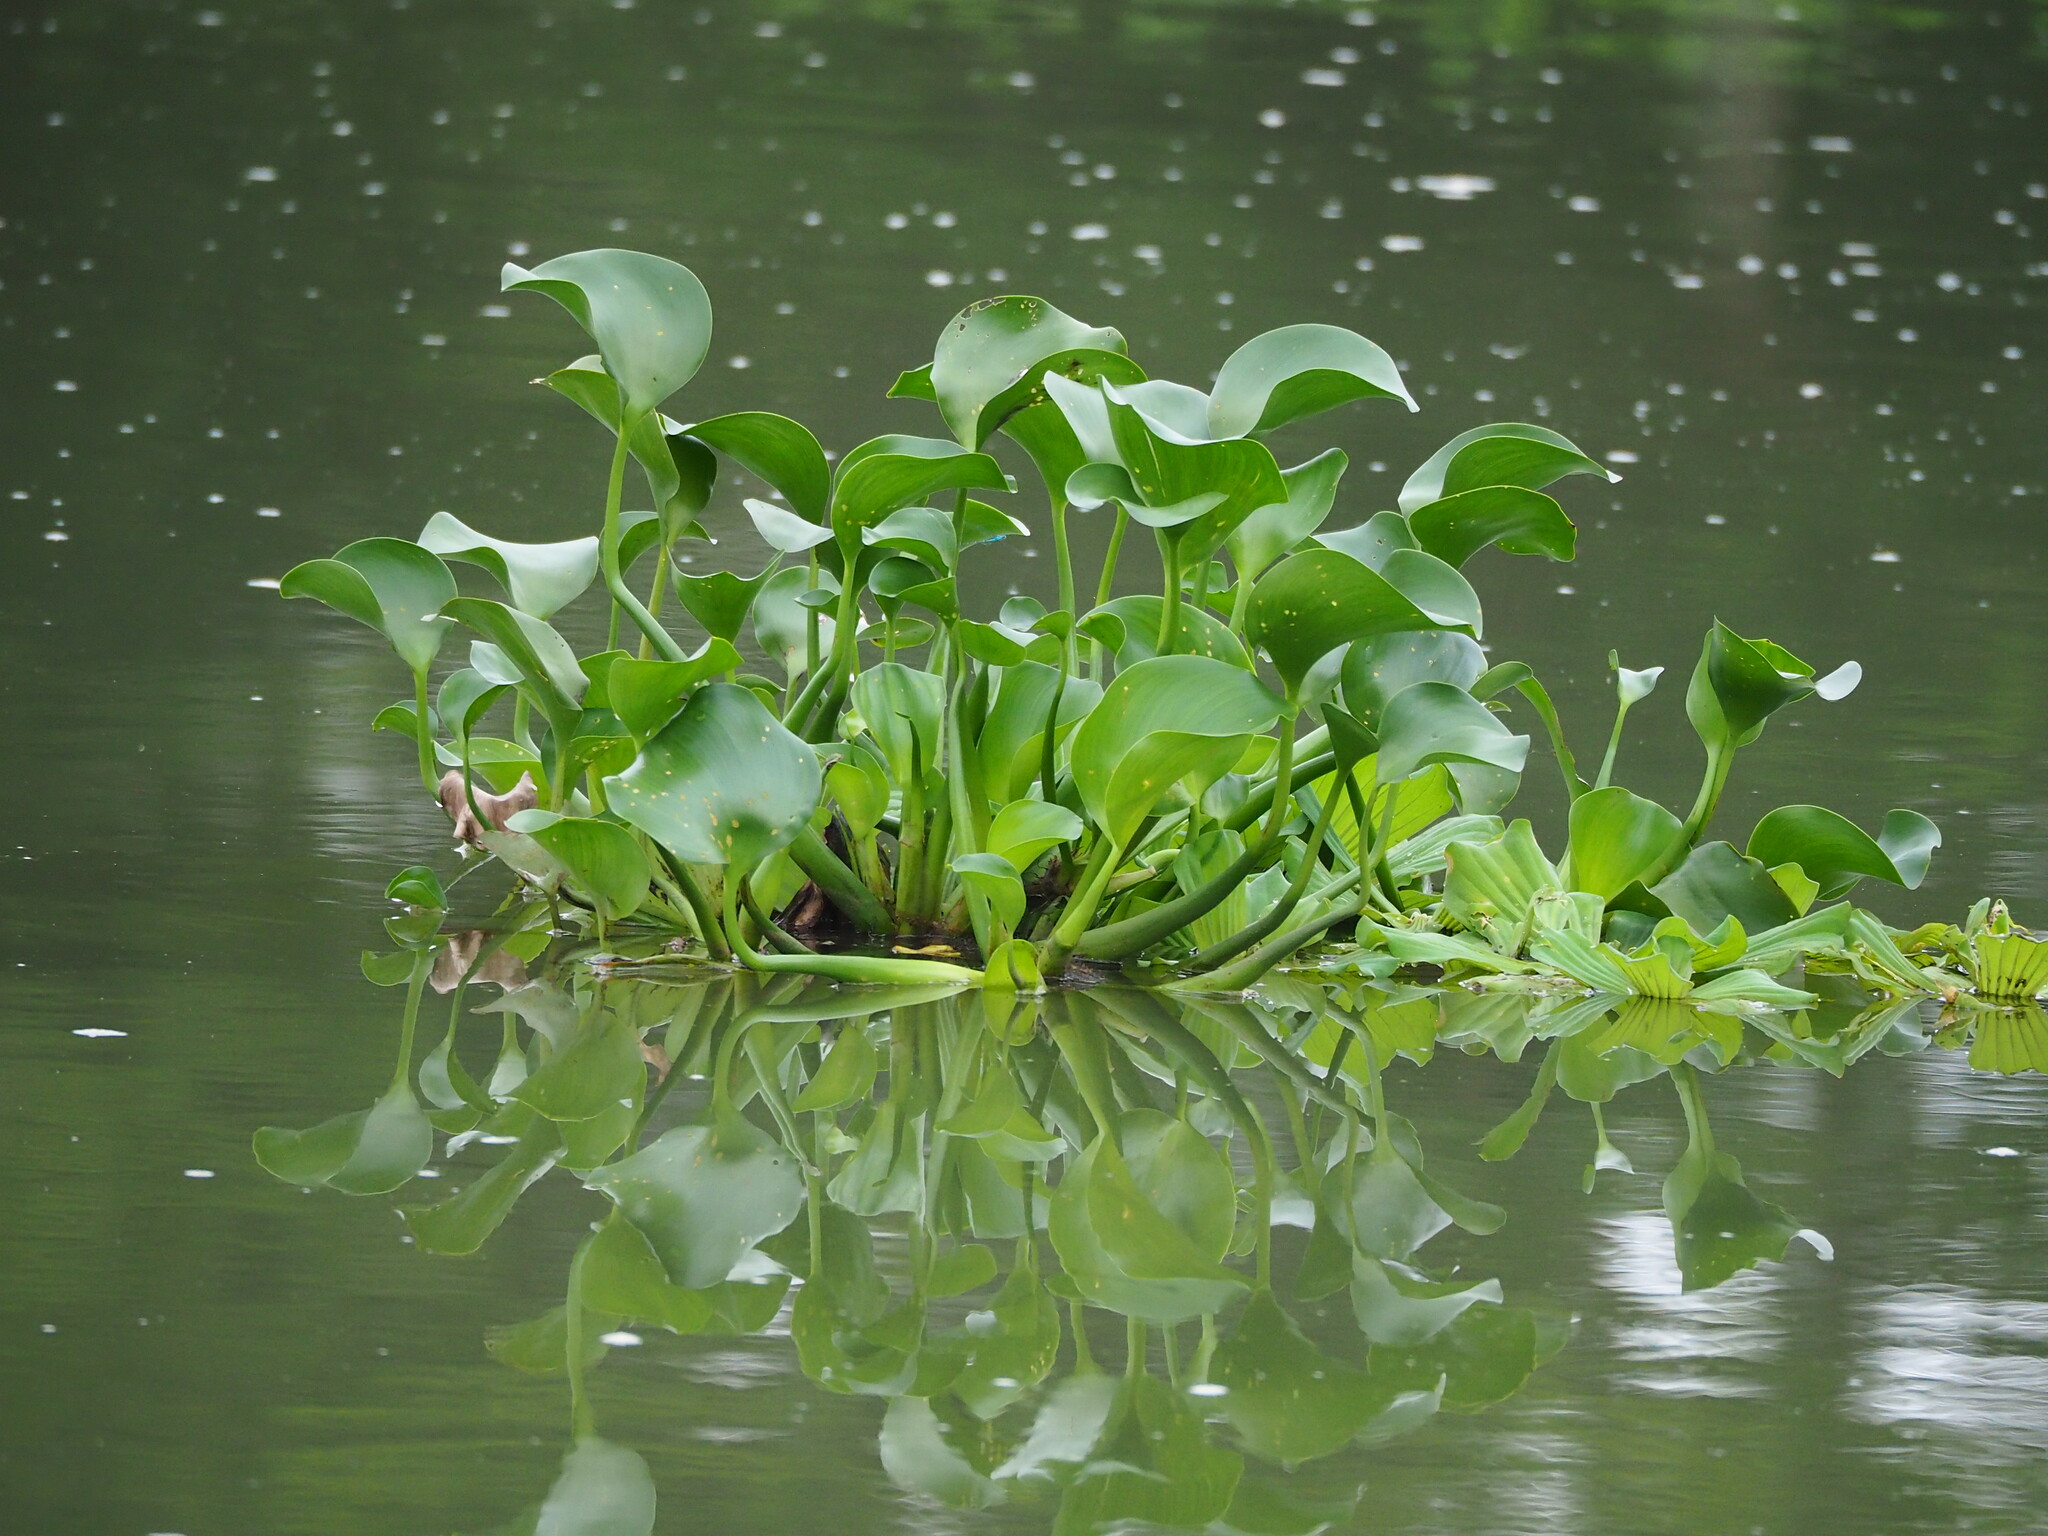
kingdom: Plantae
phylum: Tracheophyta
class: Liliopsida
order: Commelinales
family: Pontederiaceae
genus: Pontederia
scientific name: Pontederia crassipes
